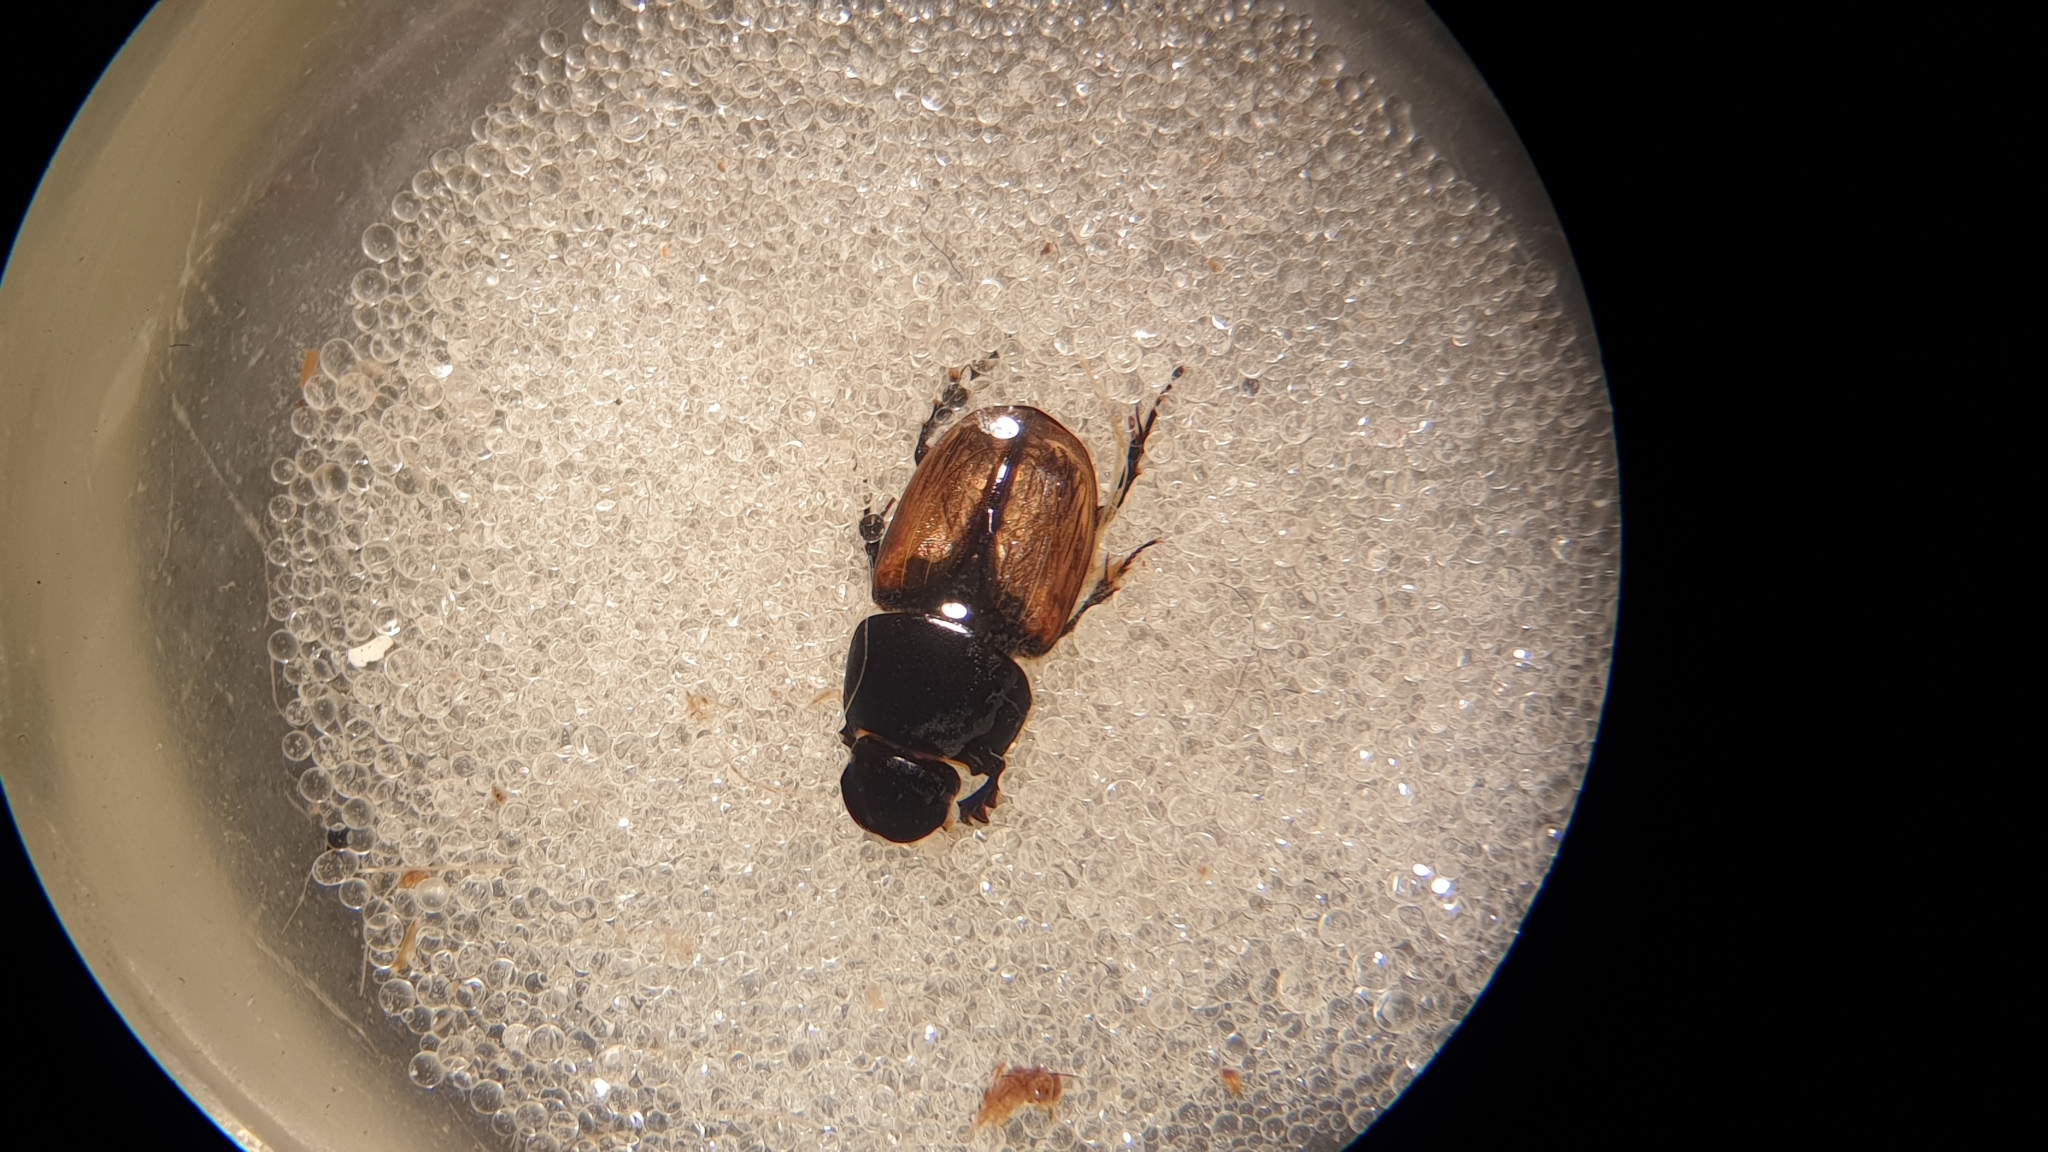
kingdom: Animalia
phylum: Arthropoda
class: Insecta
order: Coleoptera
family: Scarabaeidae
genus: Colobopterus
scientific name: Colobopterus erraticus
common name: Erratic small dung beetle
